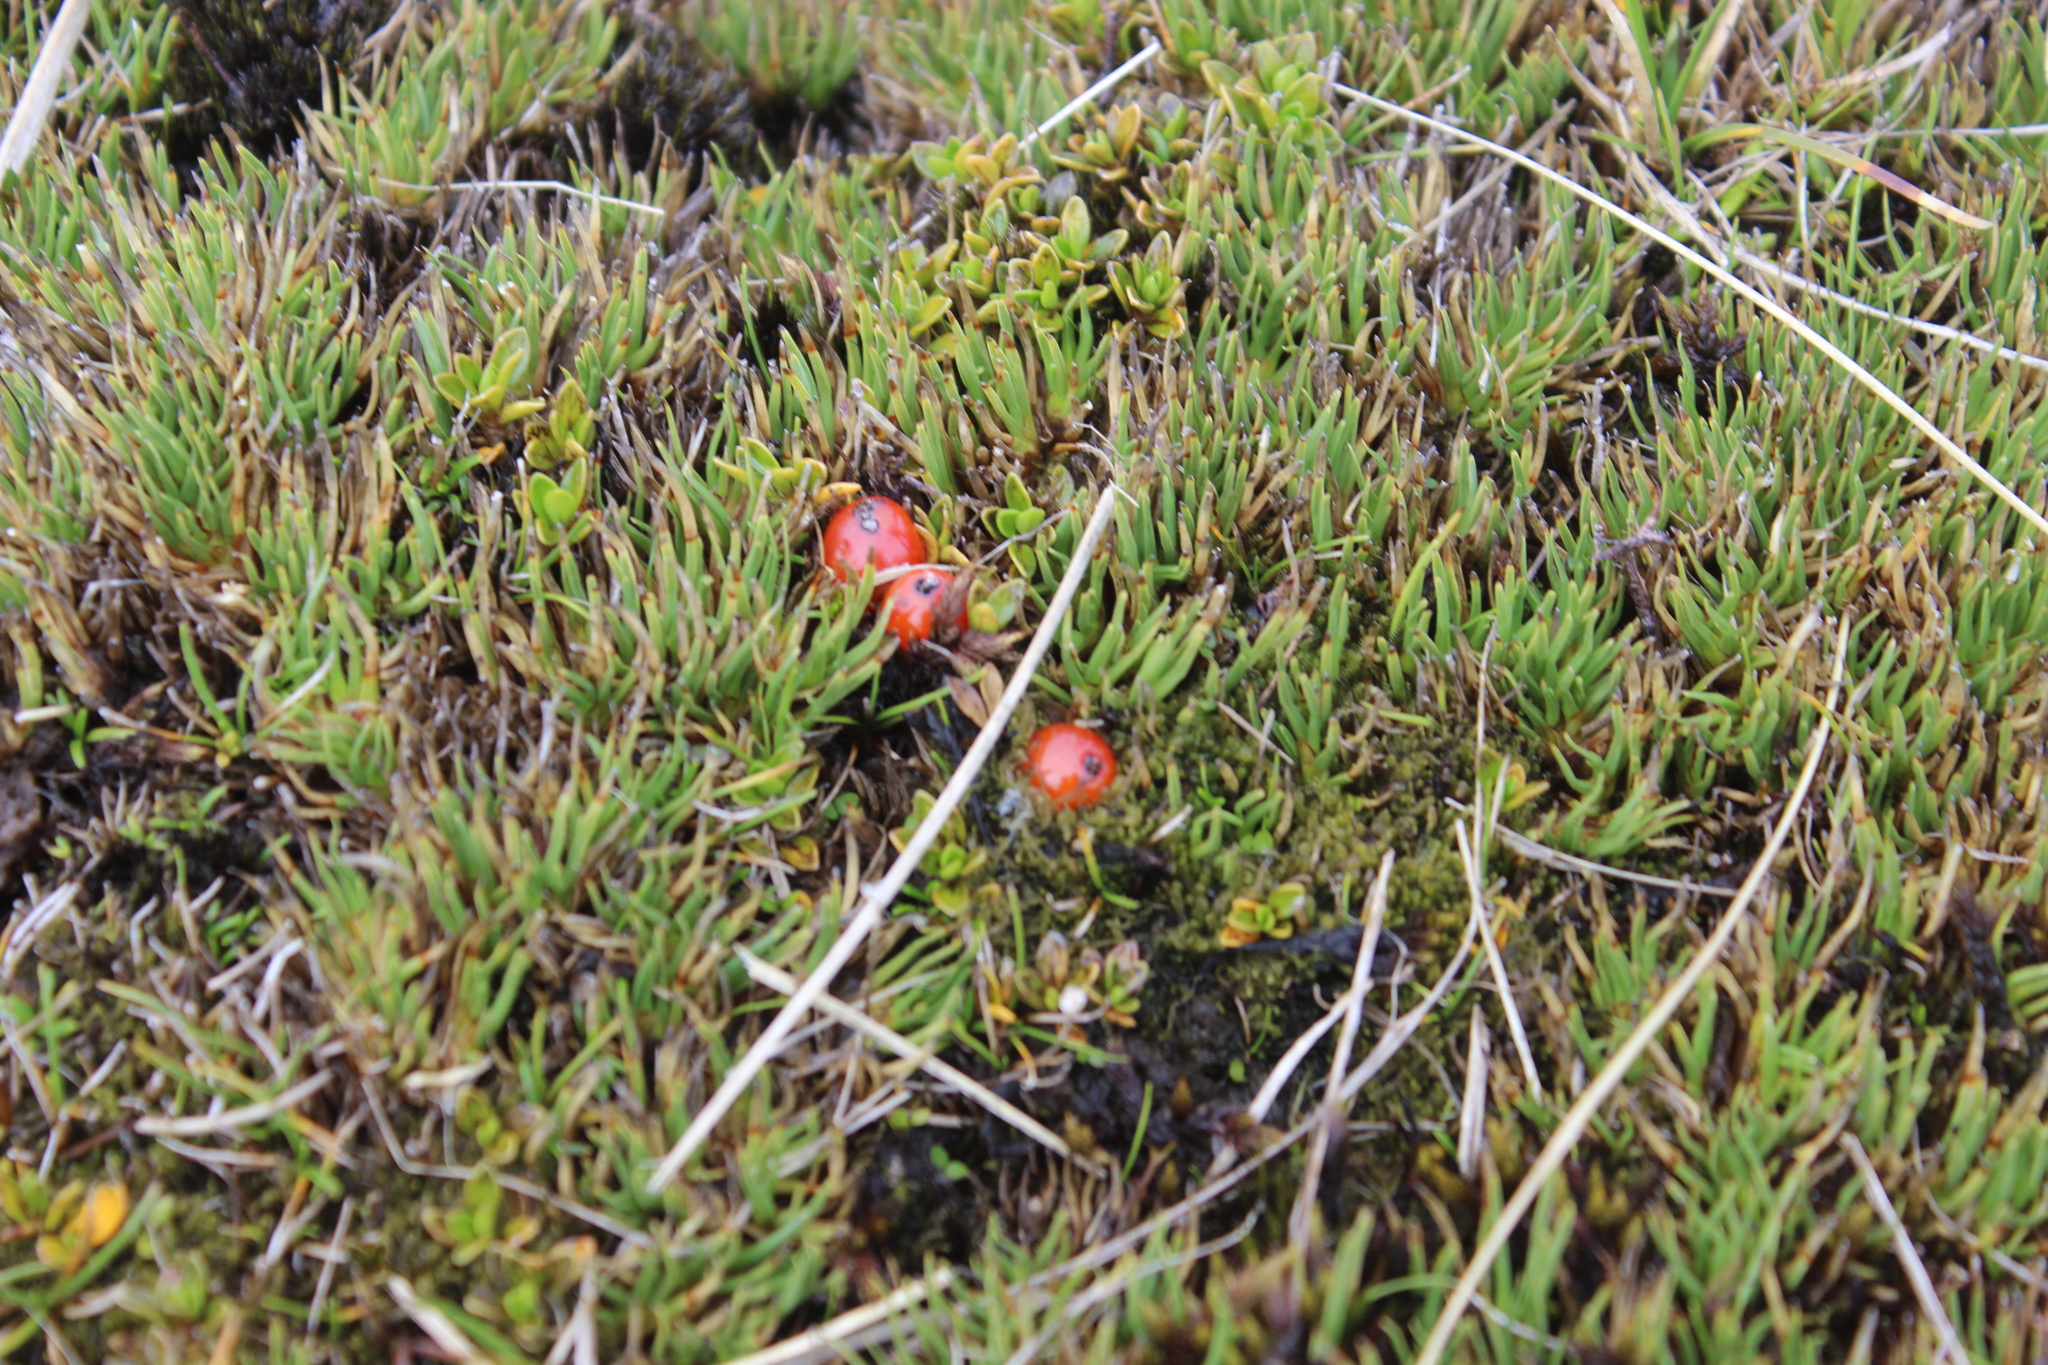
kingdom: Plantae
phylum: Tracheophyta
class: Magnoliopsida
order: Gentianales
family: Rubiaceae
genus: Coprosma
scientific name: Coprosma perpusilla
